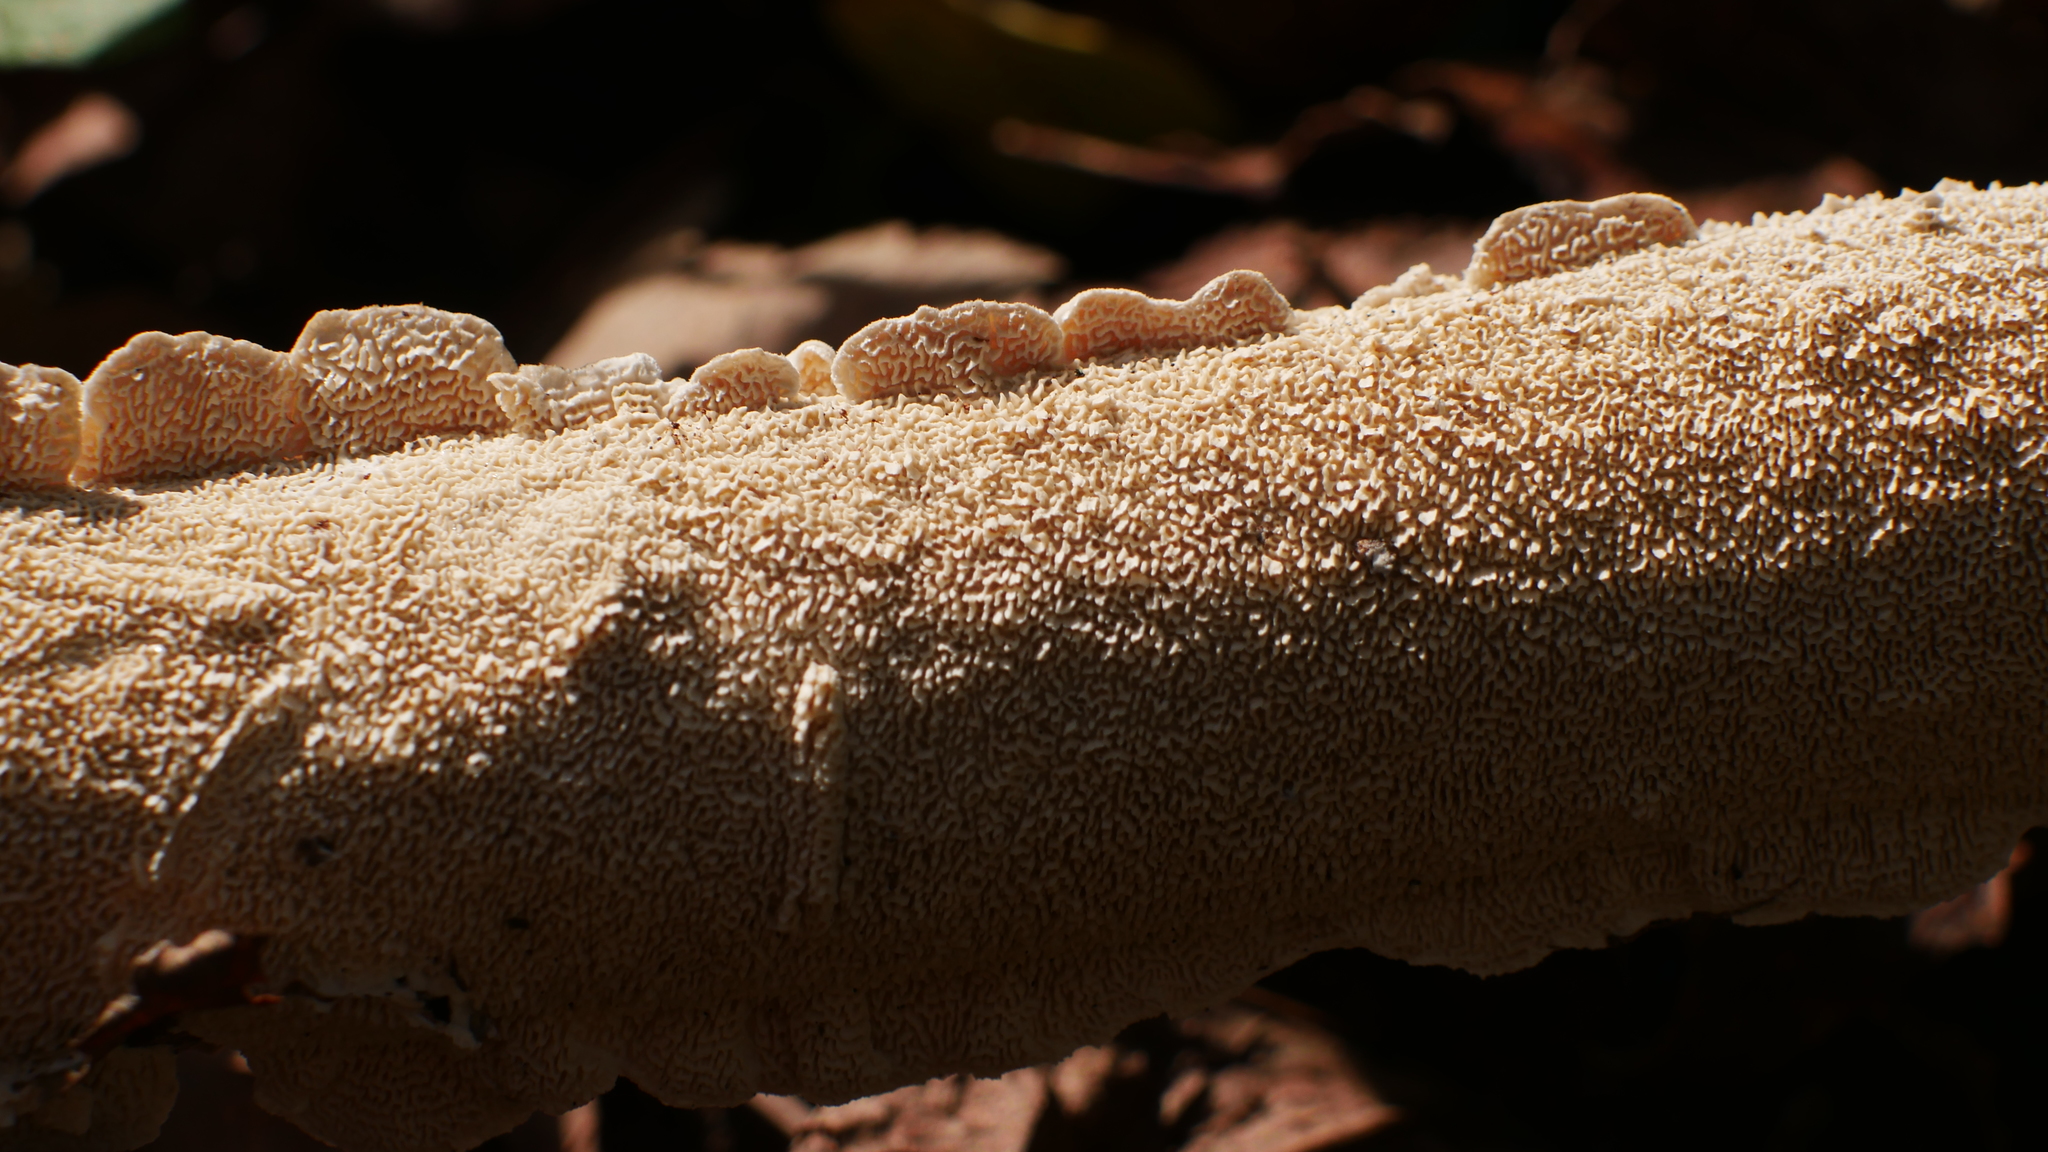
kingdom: Fungi
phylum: Basidiomycota
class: Agaricomycetes
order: Polyporales
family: Irpicaceae
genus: Irpex
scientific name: Irpex lacteus
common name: Milk-white toothed polypore
